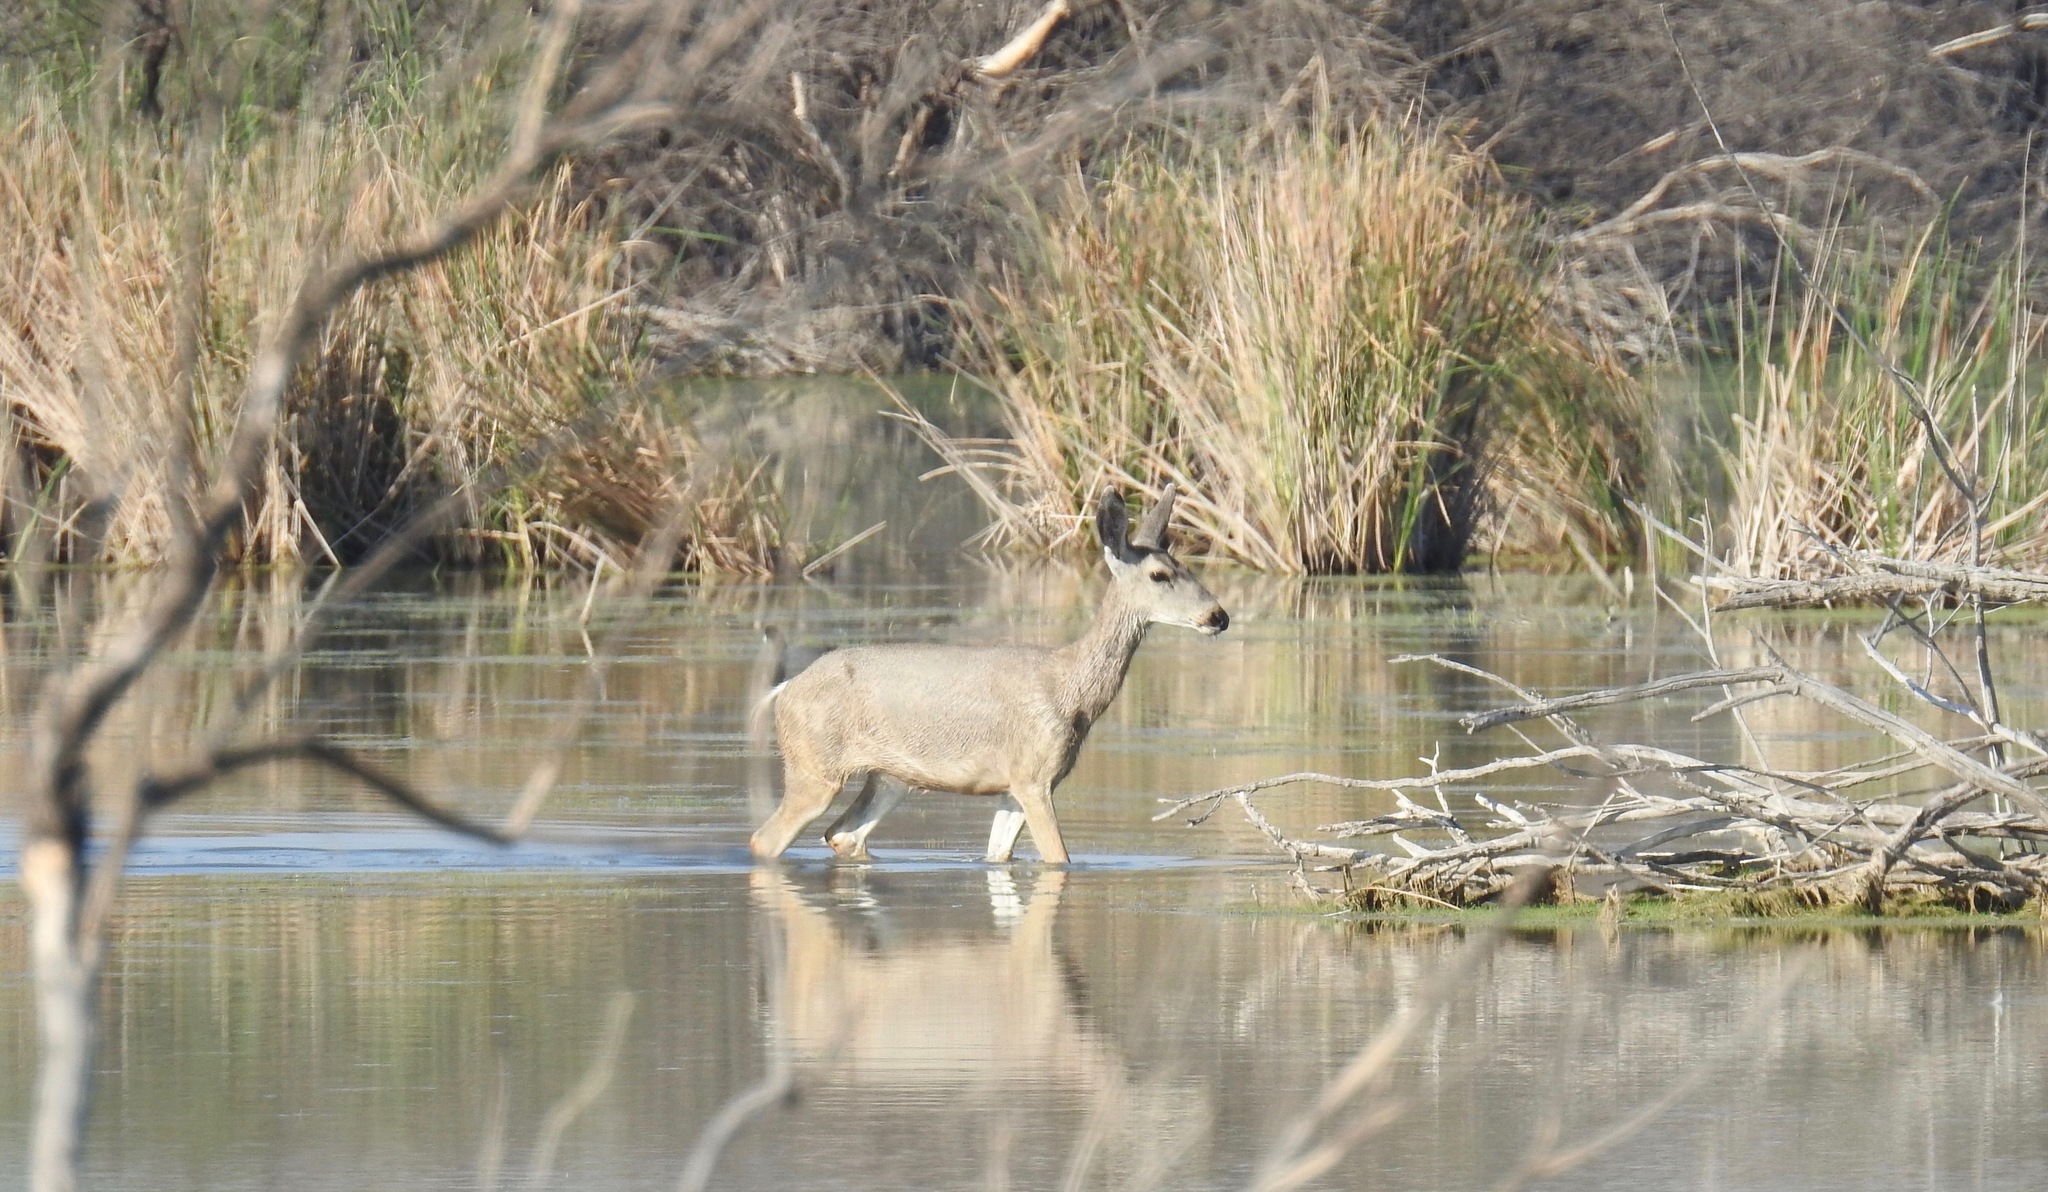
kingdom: Animalia
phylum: Chordata
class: Mammalia
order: Artiodactyla
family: Cervidae
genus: Odocoileus
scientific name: Odocoileus hemionus
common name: Mule deer
